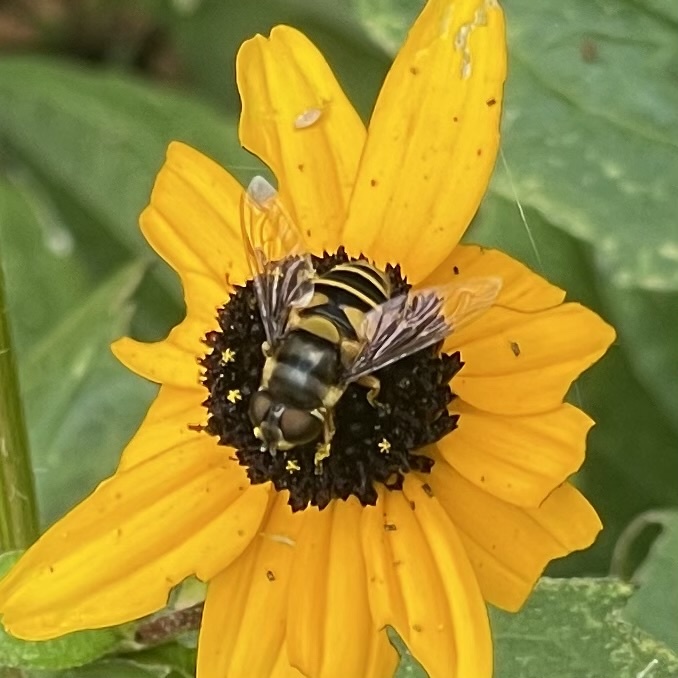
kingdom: Animalia
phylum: Arthropoda
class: Insecta
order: Diptera
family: Syrphidae
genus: Eristalis
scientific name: Eristalis transversa
